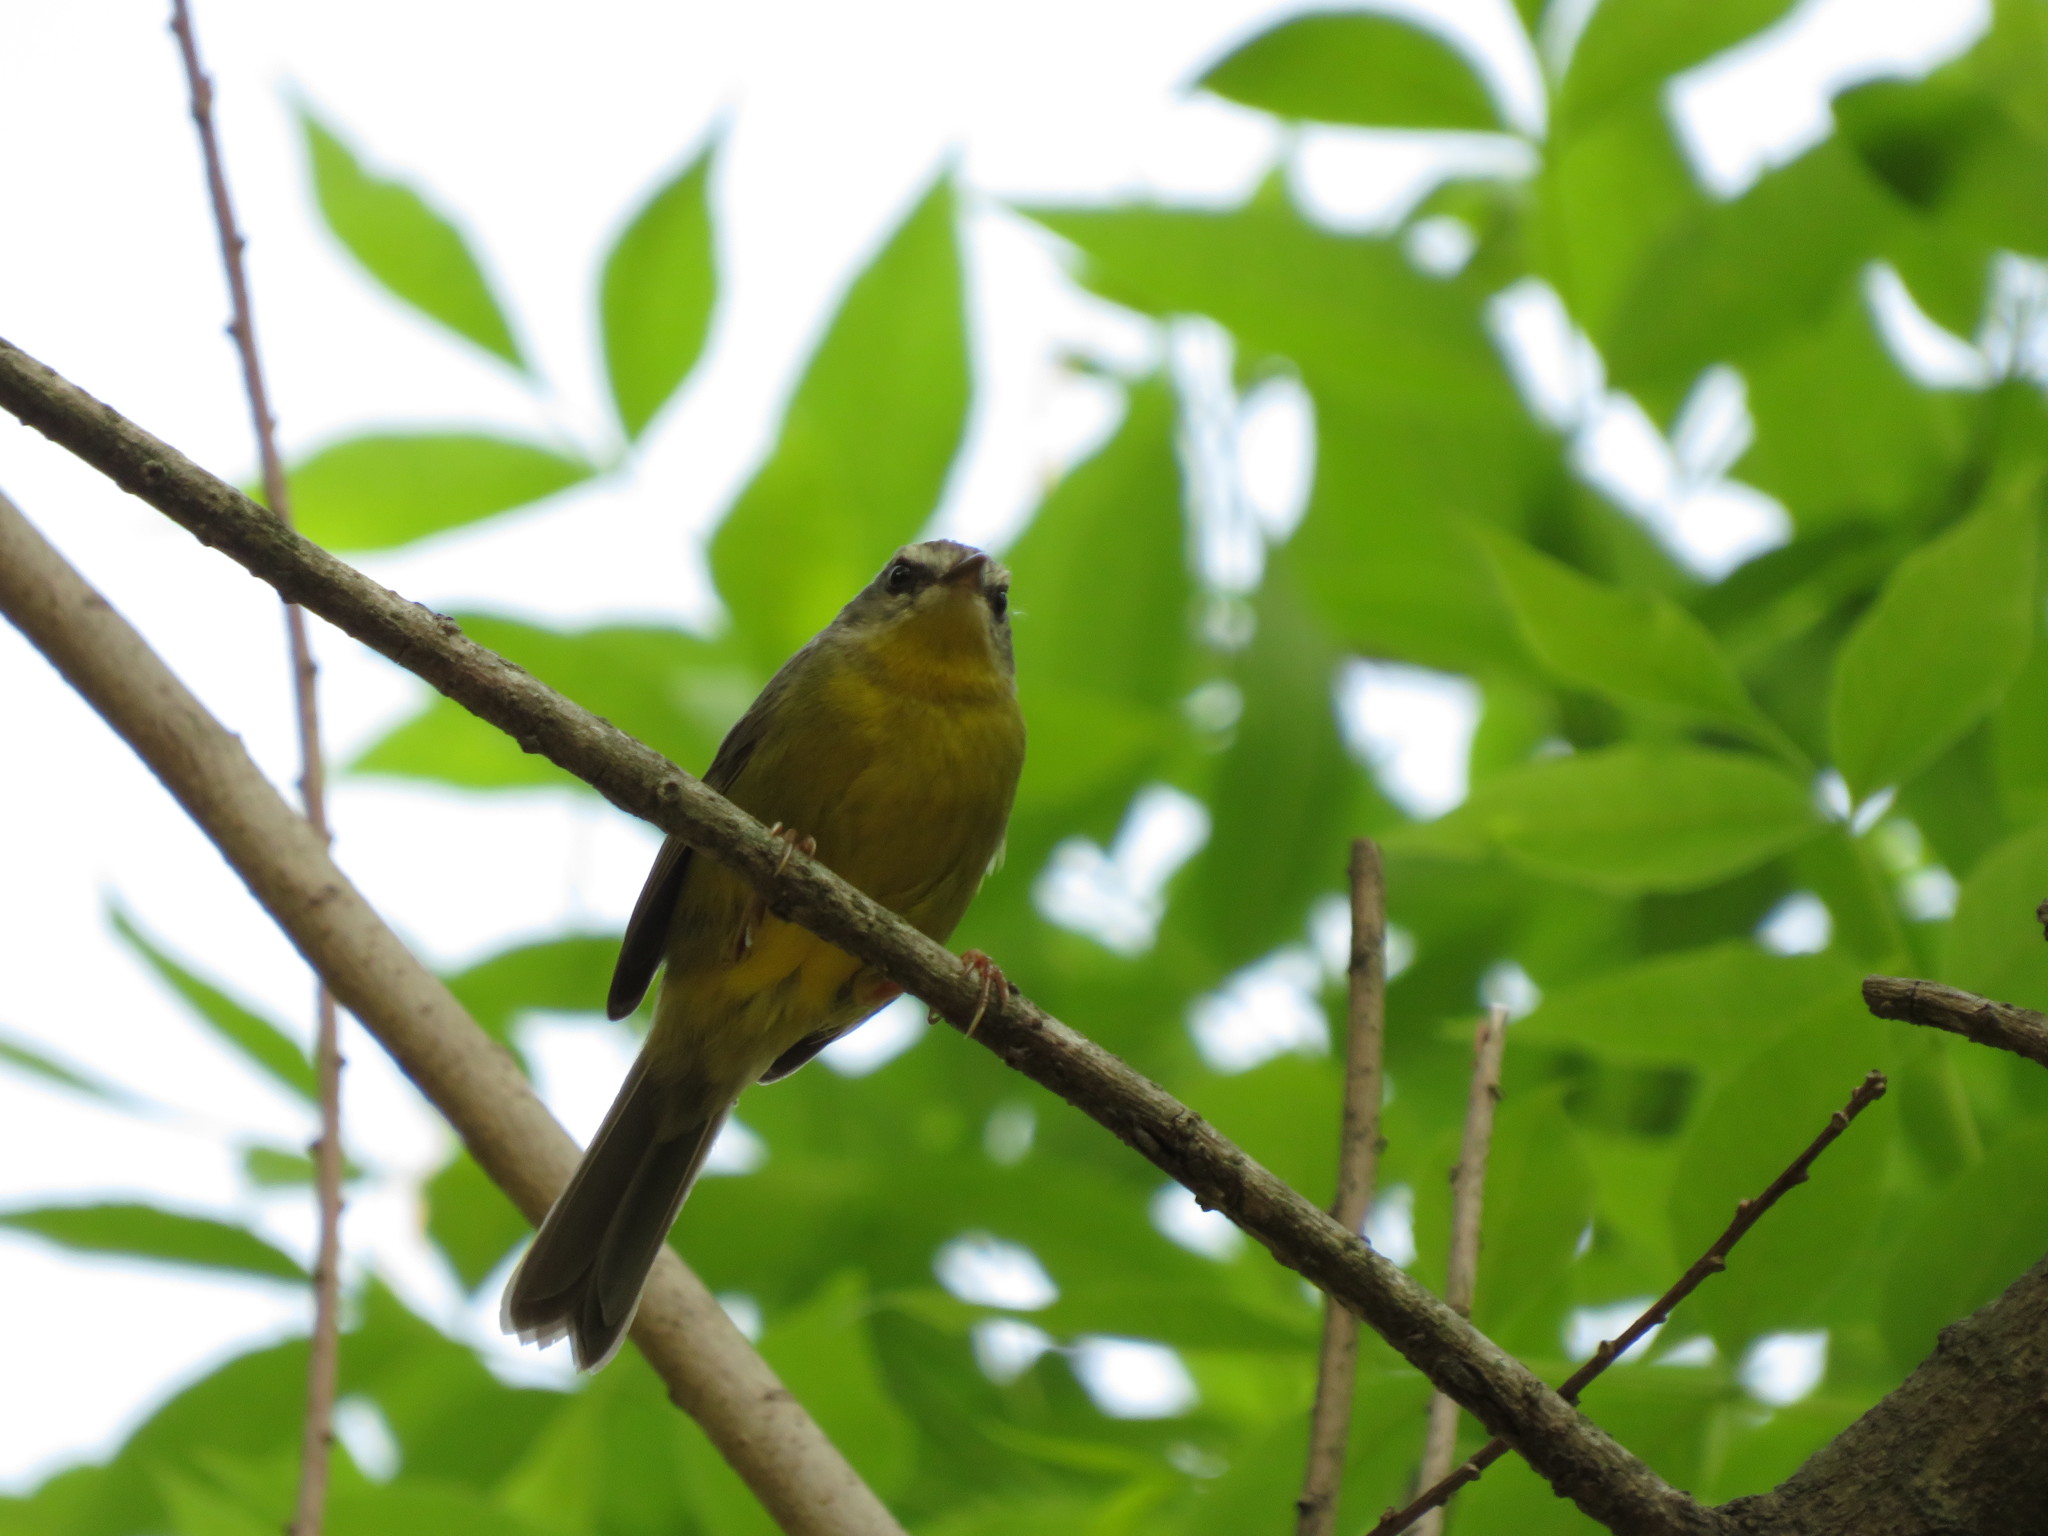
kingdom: Animalia
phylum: Chordata
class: Aves
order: Passeriformes
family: Parulidae
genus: Basileuterus
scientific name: Basileuterus culicivorus
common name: Golden-crowned warbler
